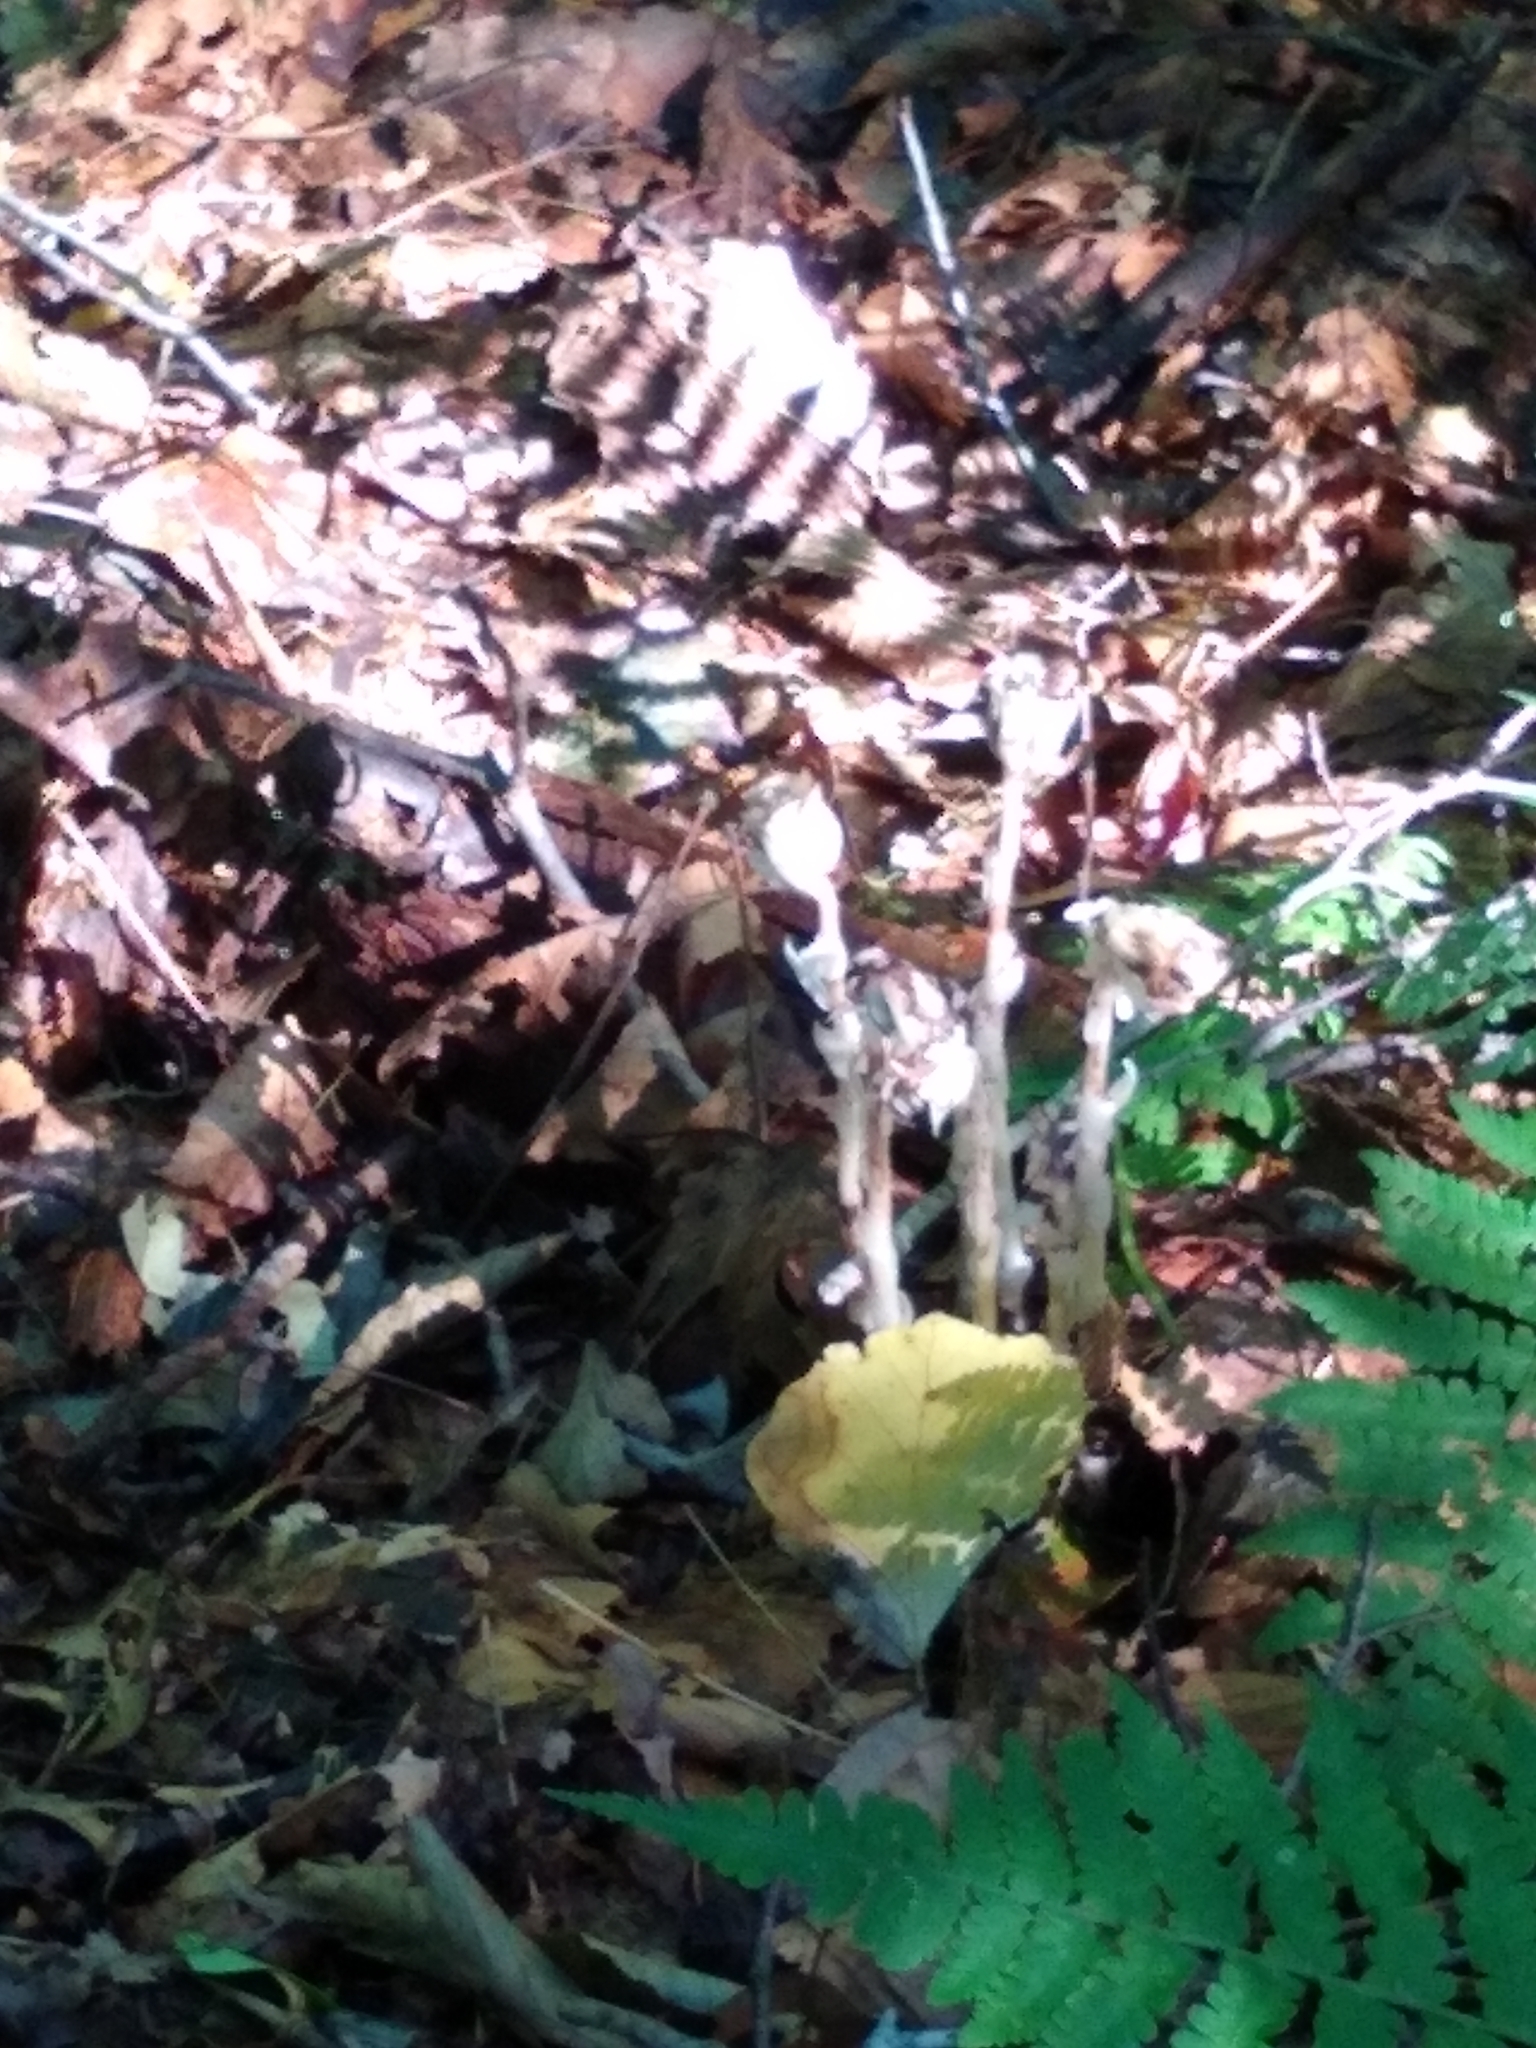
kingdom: Plantae
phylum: Tracheophyta
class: Magnoliopsida
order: Ericales
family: Ericaceae
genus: Monotropa
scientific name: Monotropa uniflora
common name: Convulsion root
